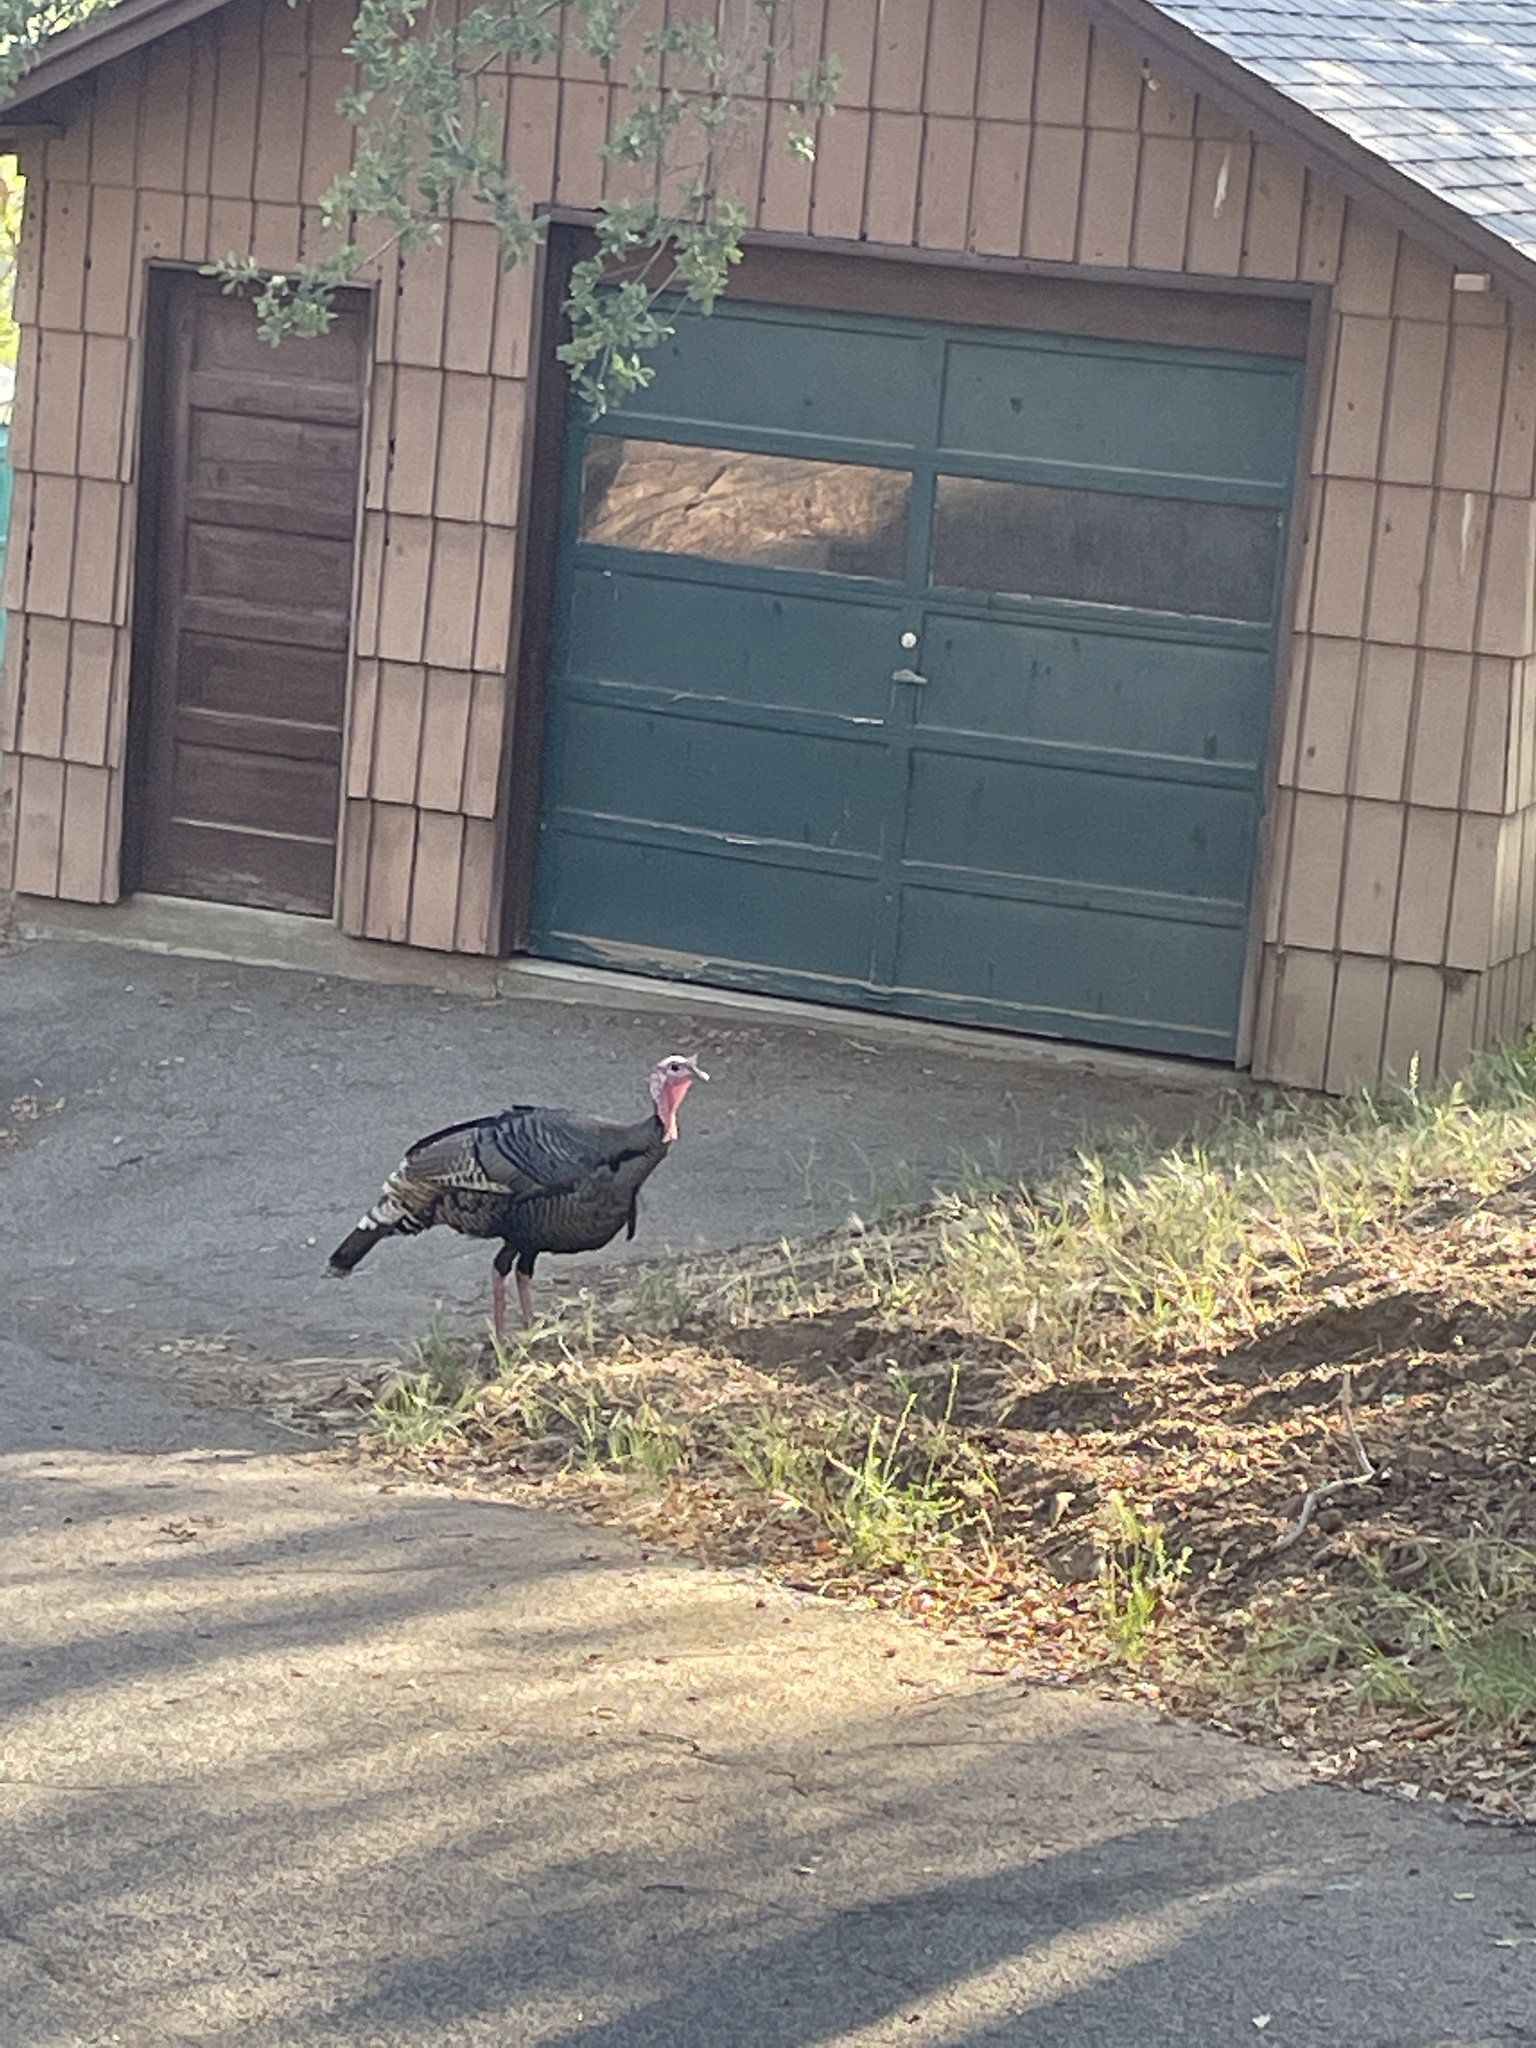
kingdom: Animalia
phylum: Chordata
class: Aves
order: Galliformes
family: Phasianidae
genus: Meleagris
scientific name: Meleagris gallopavo
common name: Wild turkey
